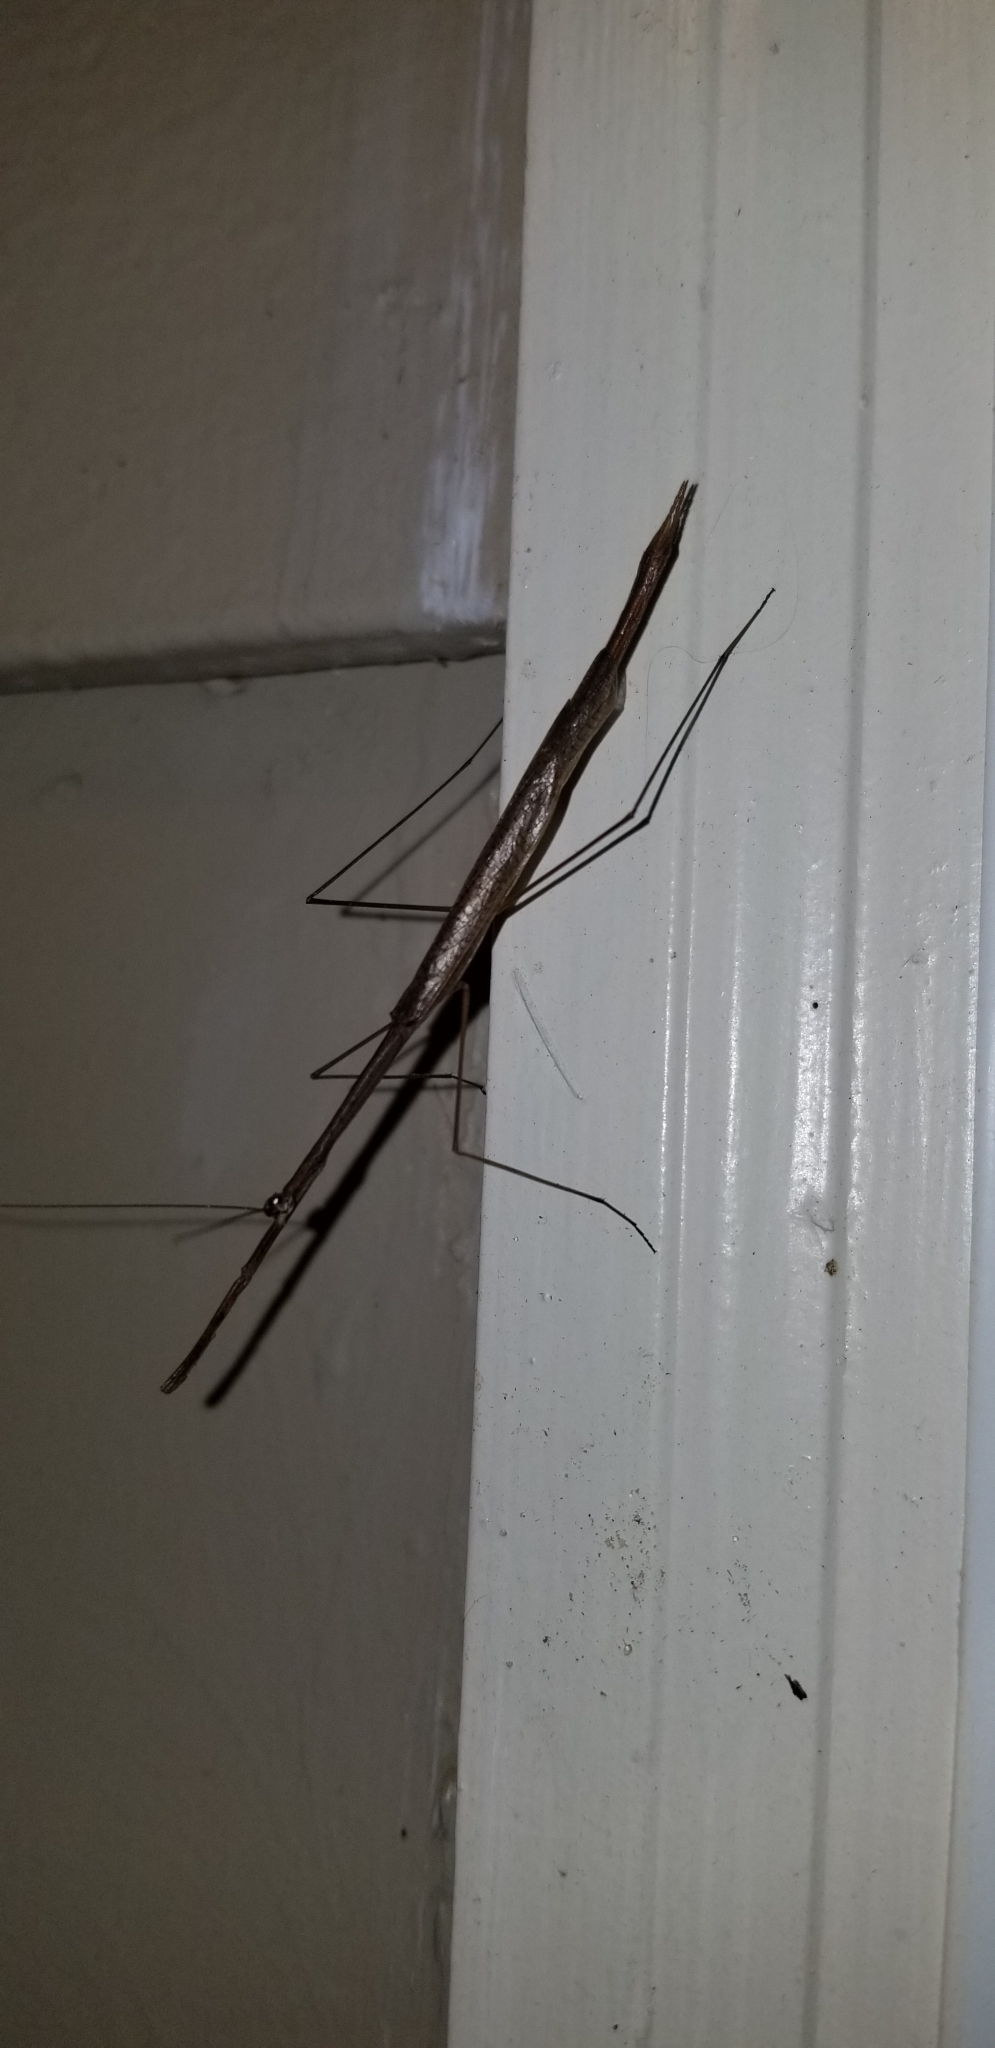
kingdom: Animalia
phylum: Arthropoda
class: Insecta
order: Mantodea
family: Thespidae
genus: Thesprotia
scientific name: Thesprotia graminis
